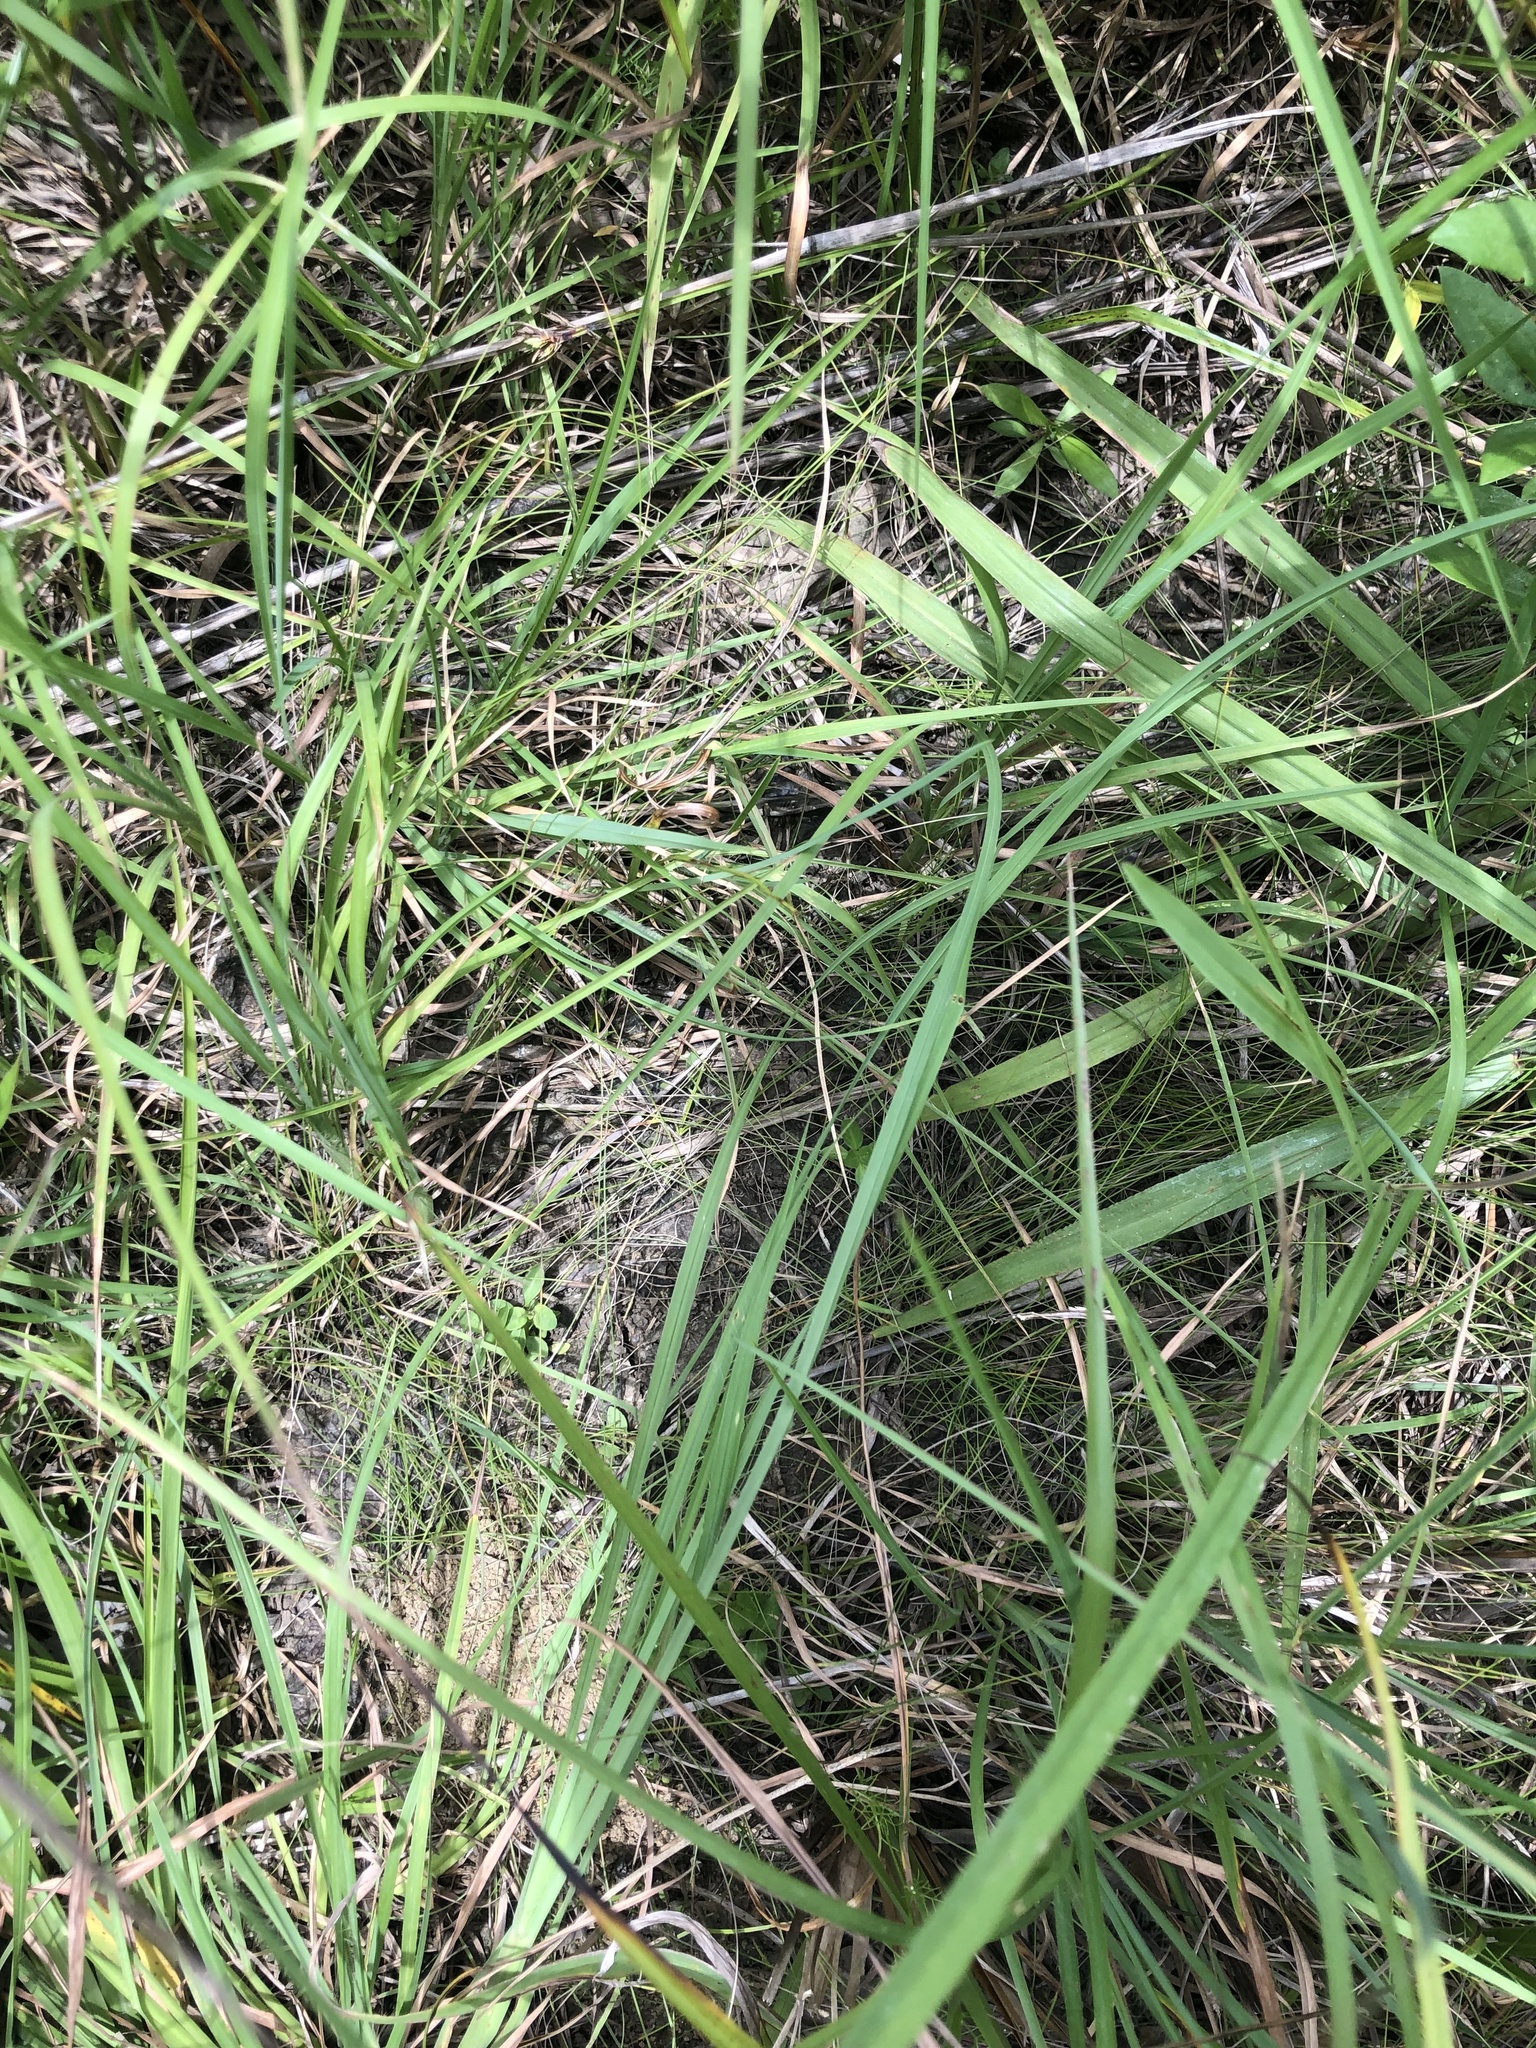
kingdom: Plantae
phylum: Tracheophyta
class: Liliopsida
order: Poales
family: Cyperaceae
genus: Eleocharis
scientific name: Eleocharis tenuis
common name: Dog's hair
